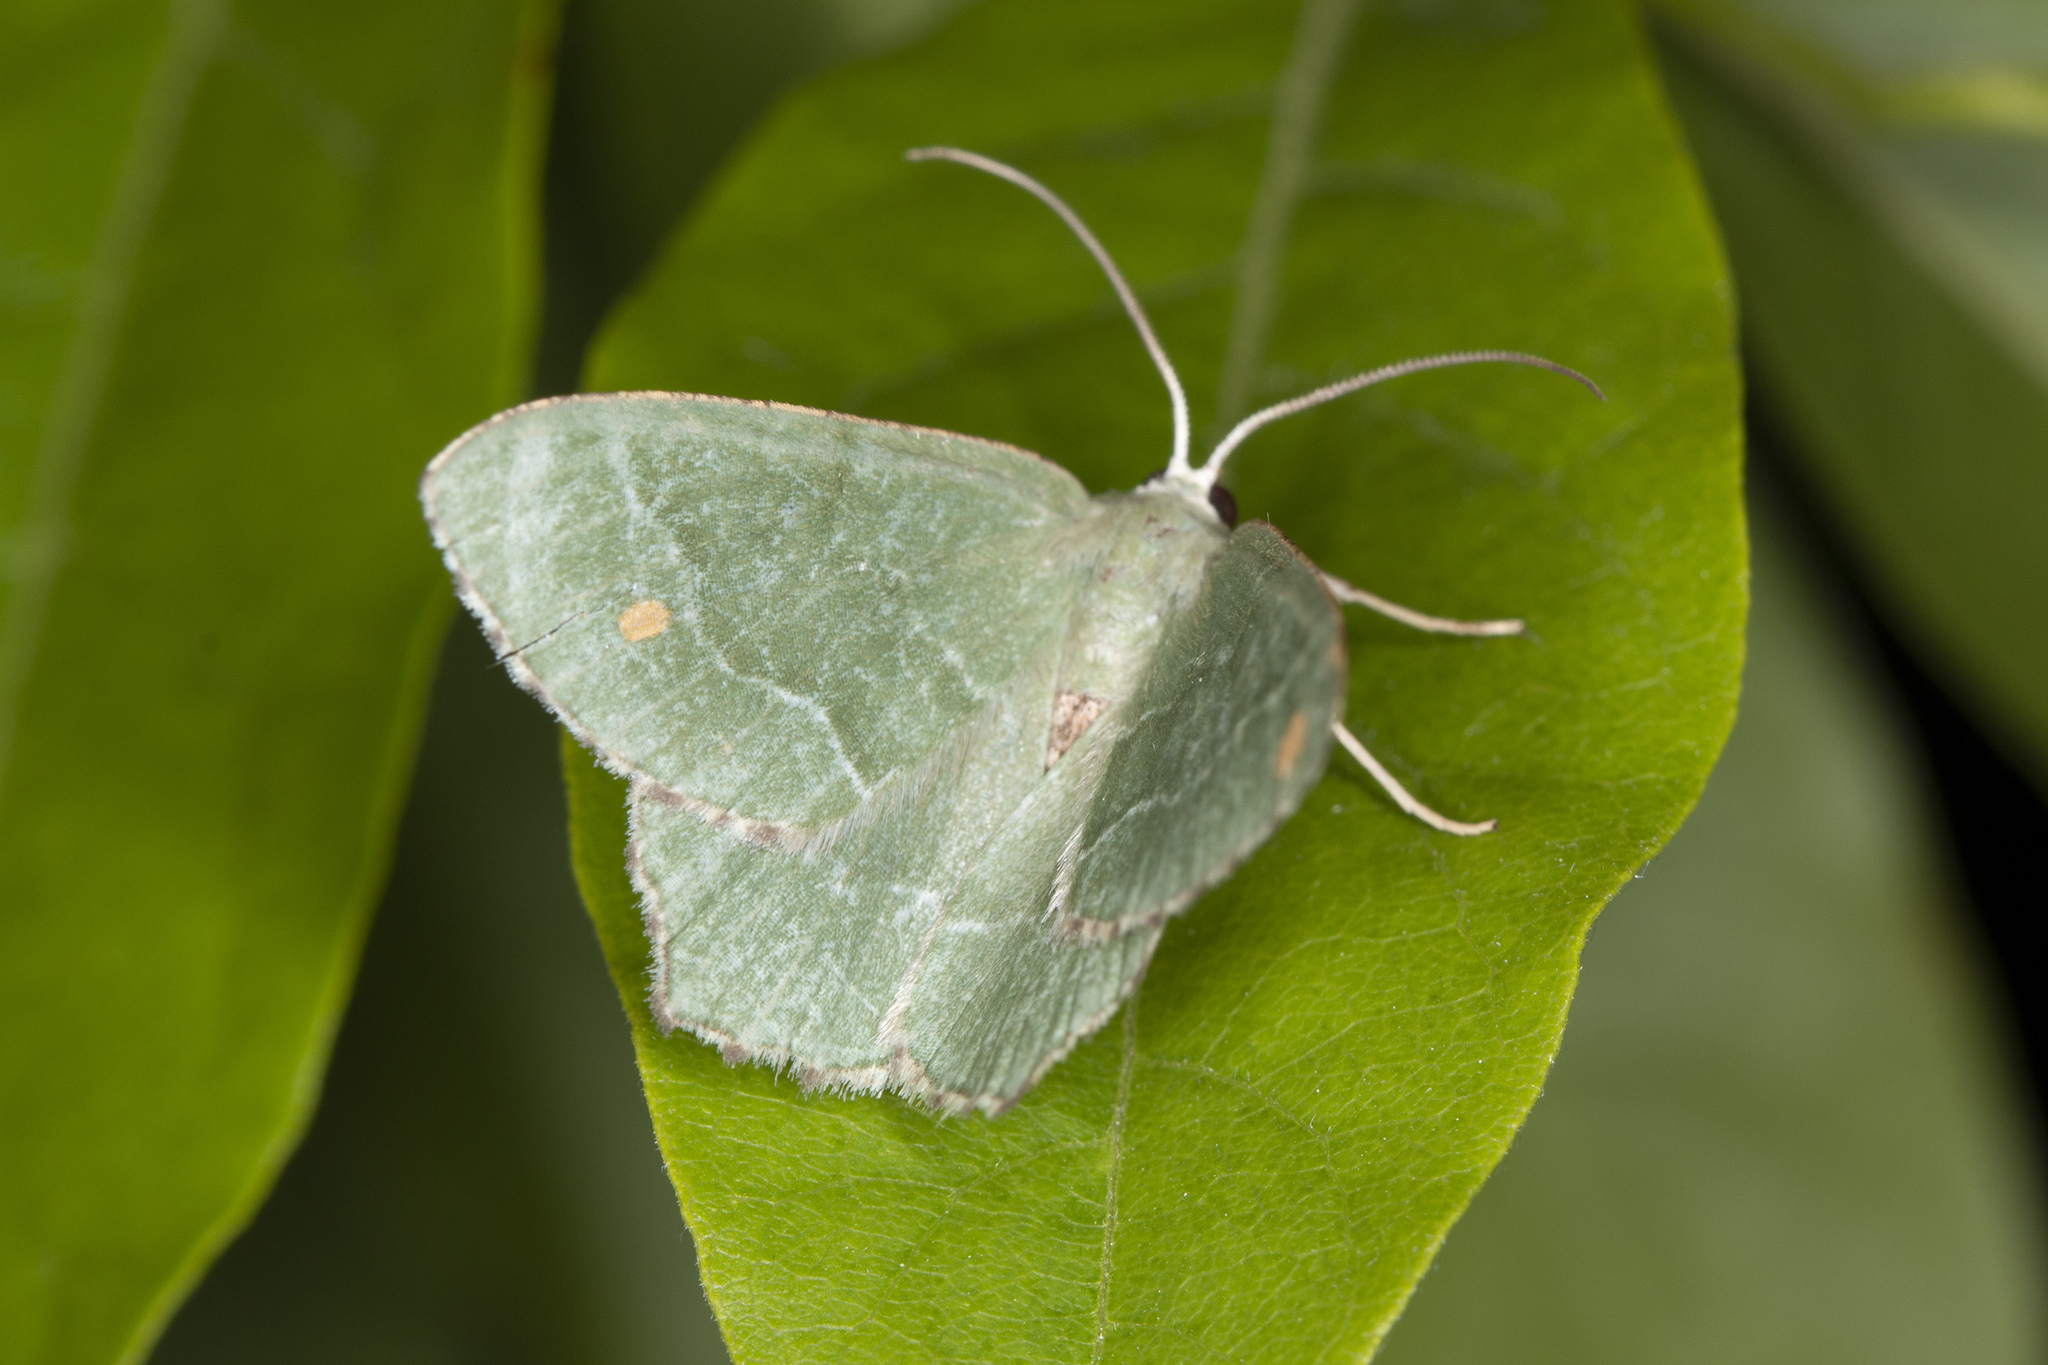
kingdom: Animalia
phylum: Arthropoda
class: Insecta
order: Lepidoptera
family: Geometridae
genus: Hemithea
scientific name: Hemithea aestivaria
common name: Common emerald
